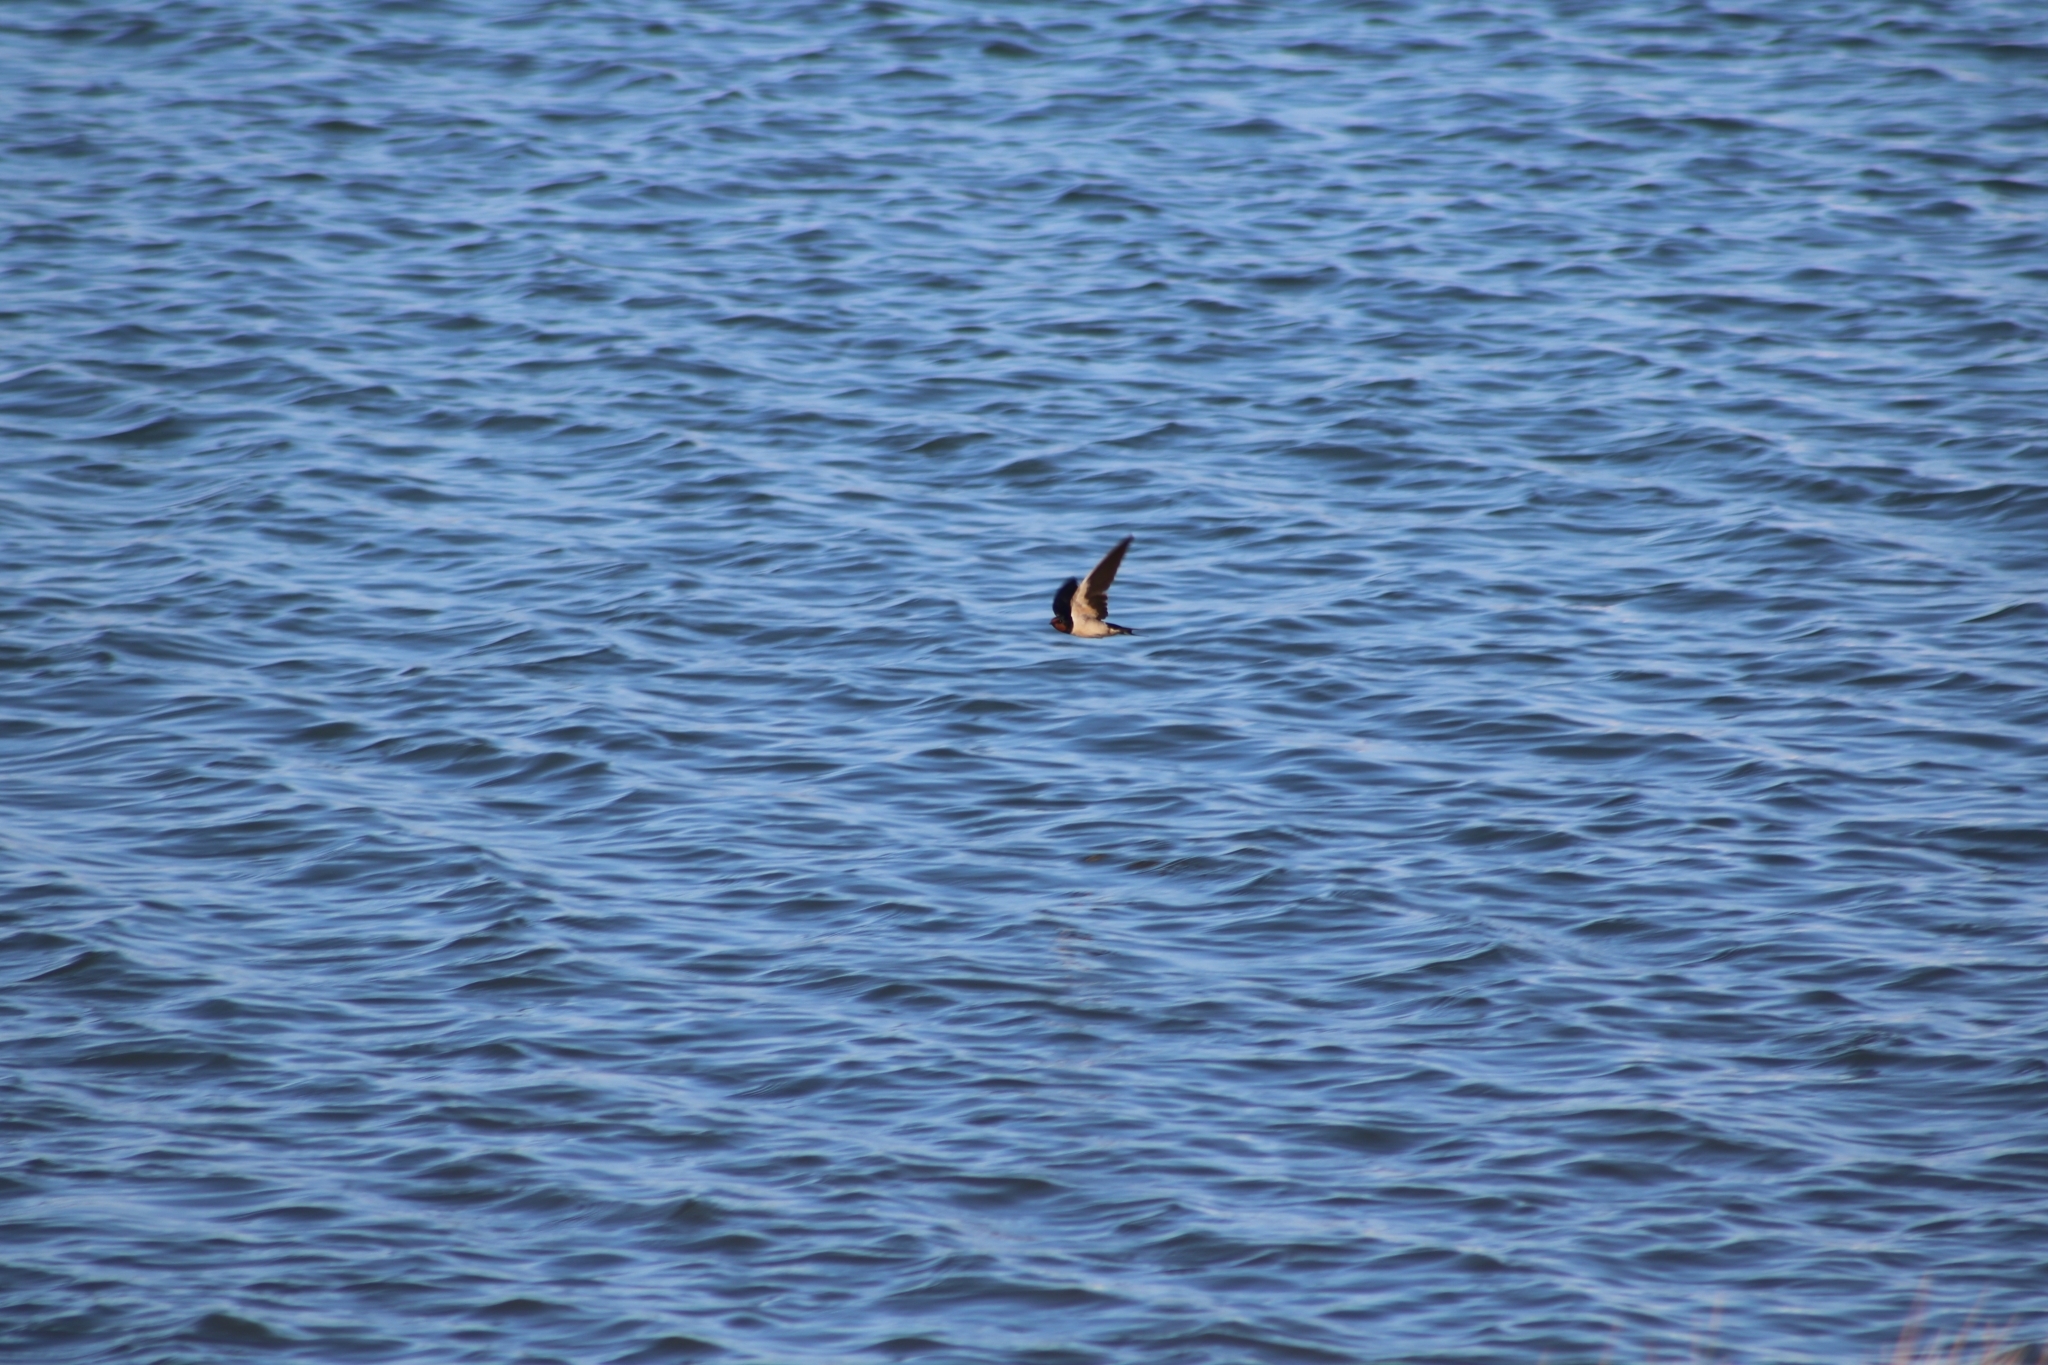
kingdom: Animalia
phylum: Chordata
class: Aves
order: Passeriformes
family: Hirundinidae
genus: Hirundo
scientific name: Hirundo rustica
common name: Barn swallow
